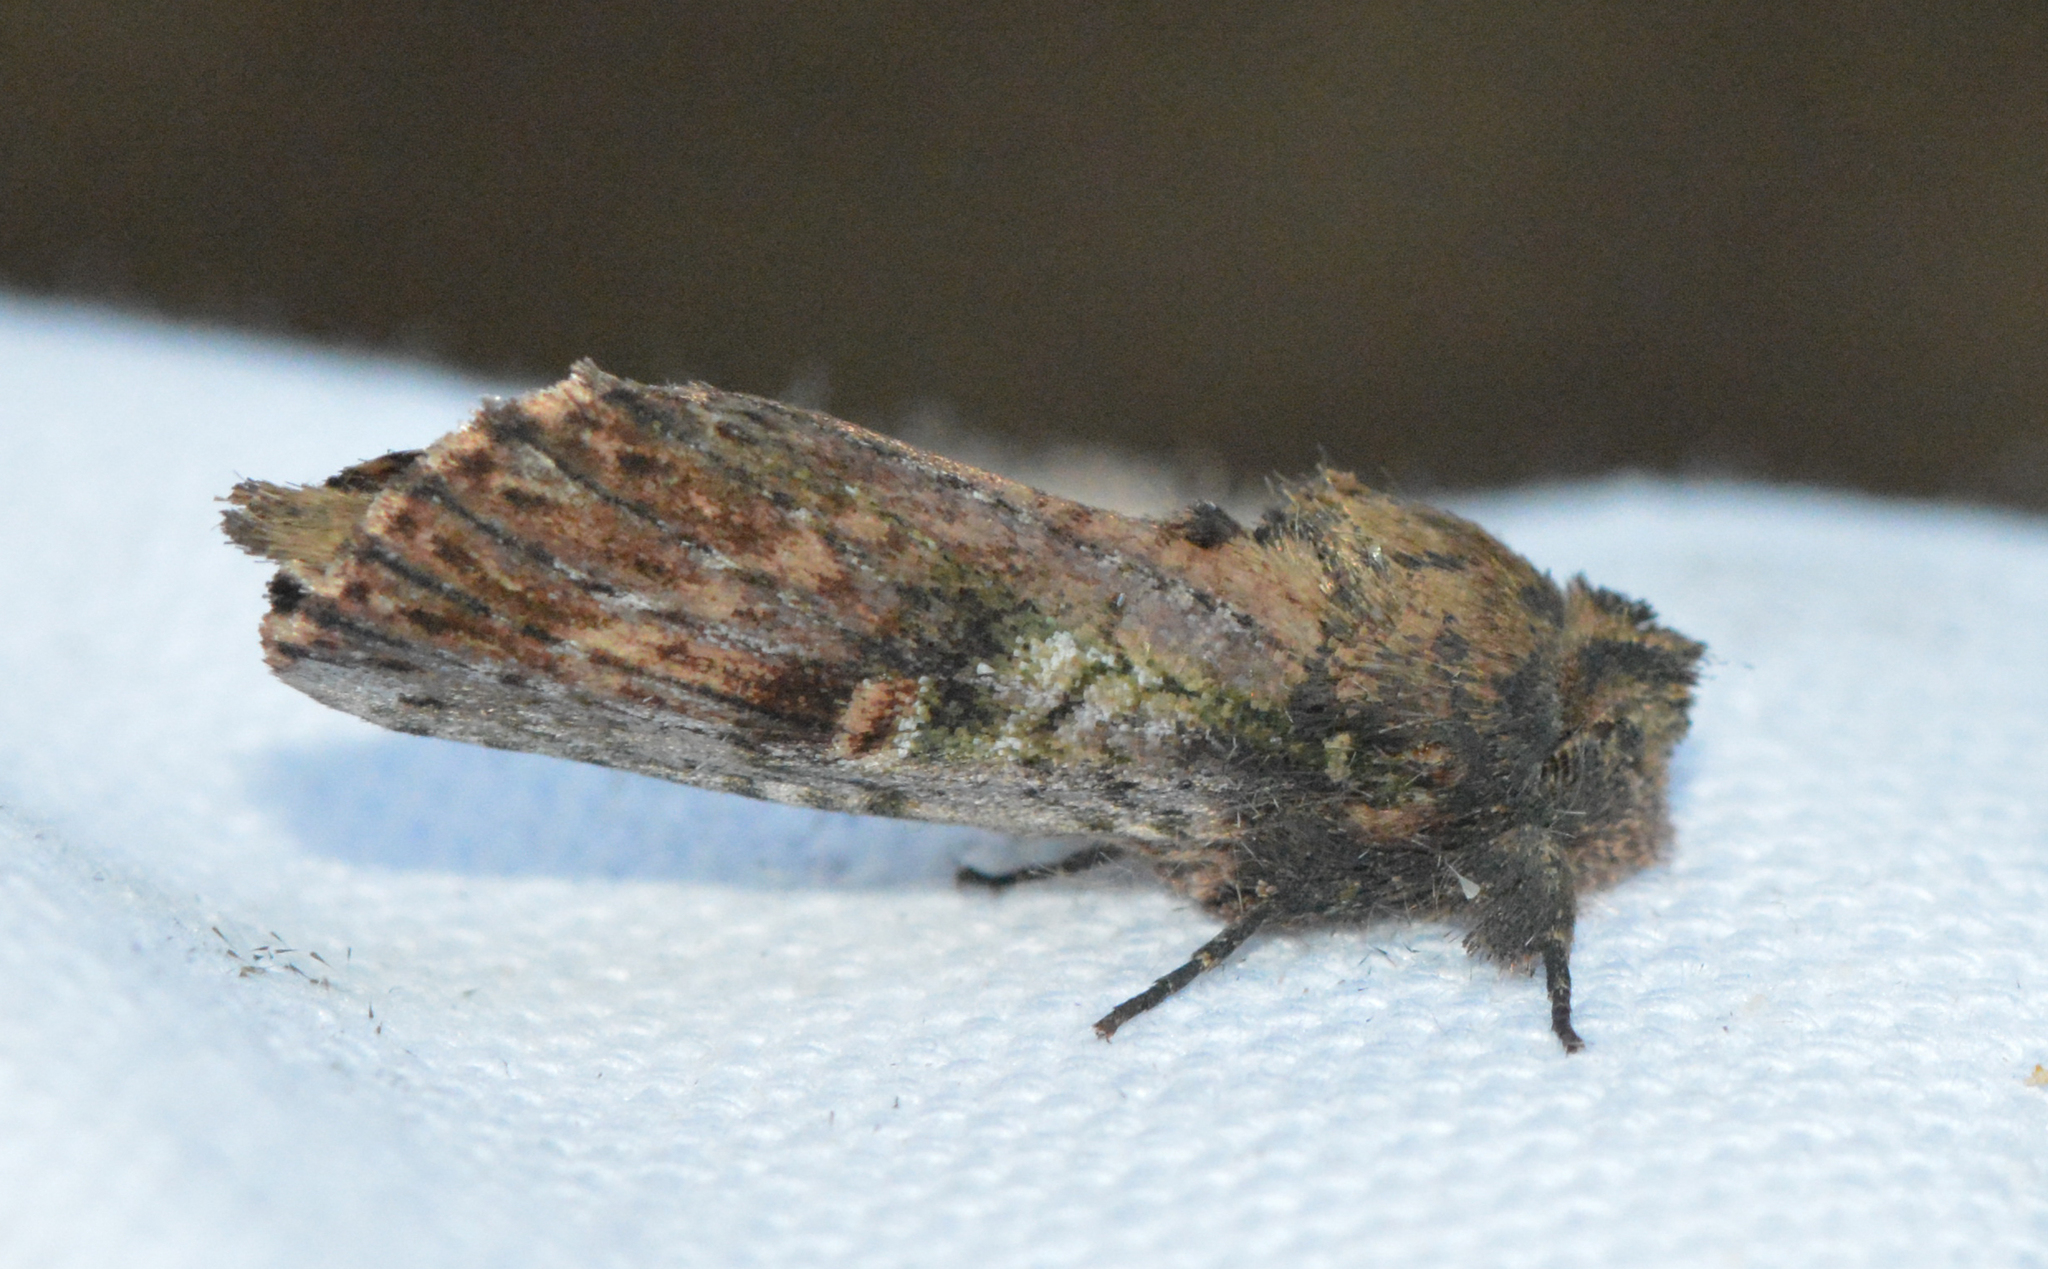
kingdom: Animalia
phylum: Arthropoda
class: Insecta
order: Lepidoptera
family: Notodontidae
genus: Schizura
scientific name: Schizura ipomaeae
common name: Morning-glory prominent
